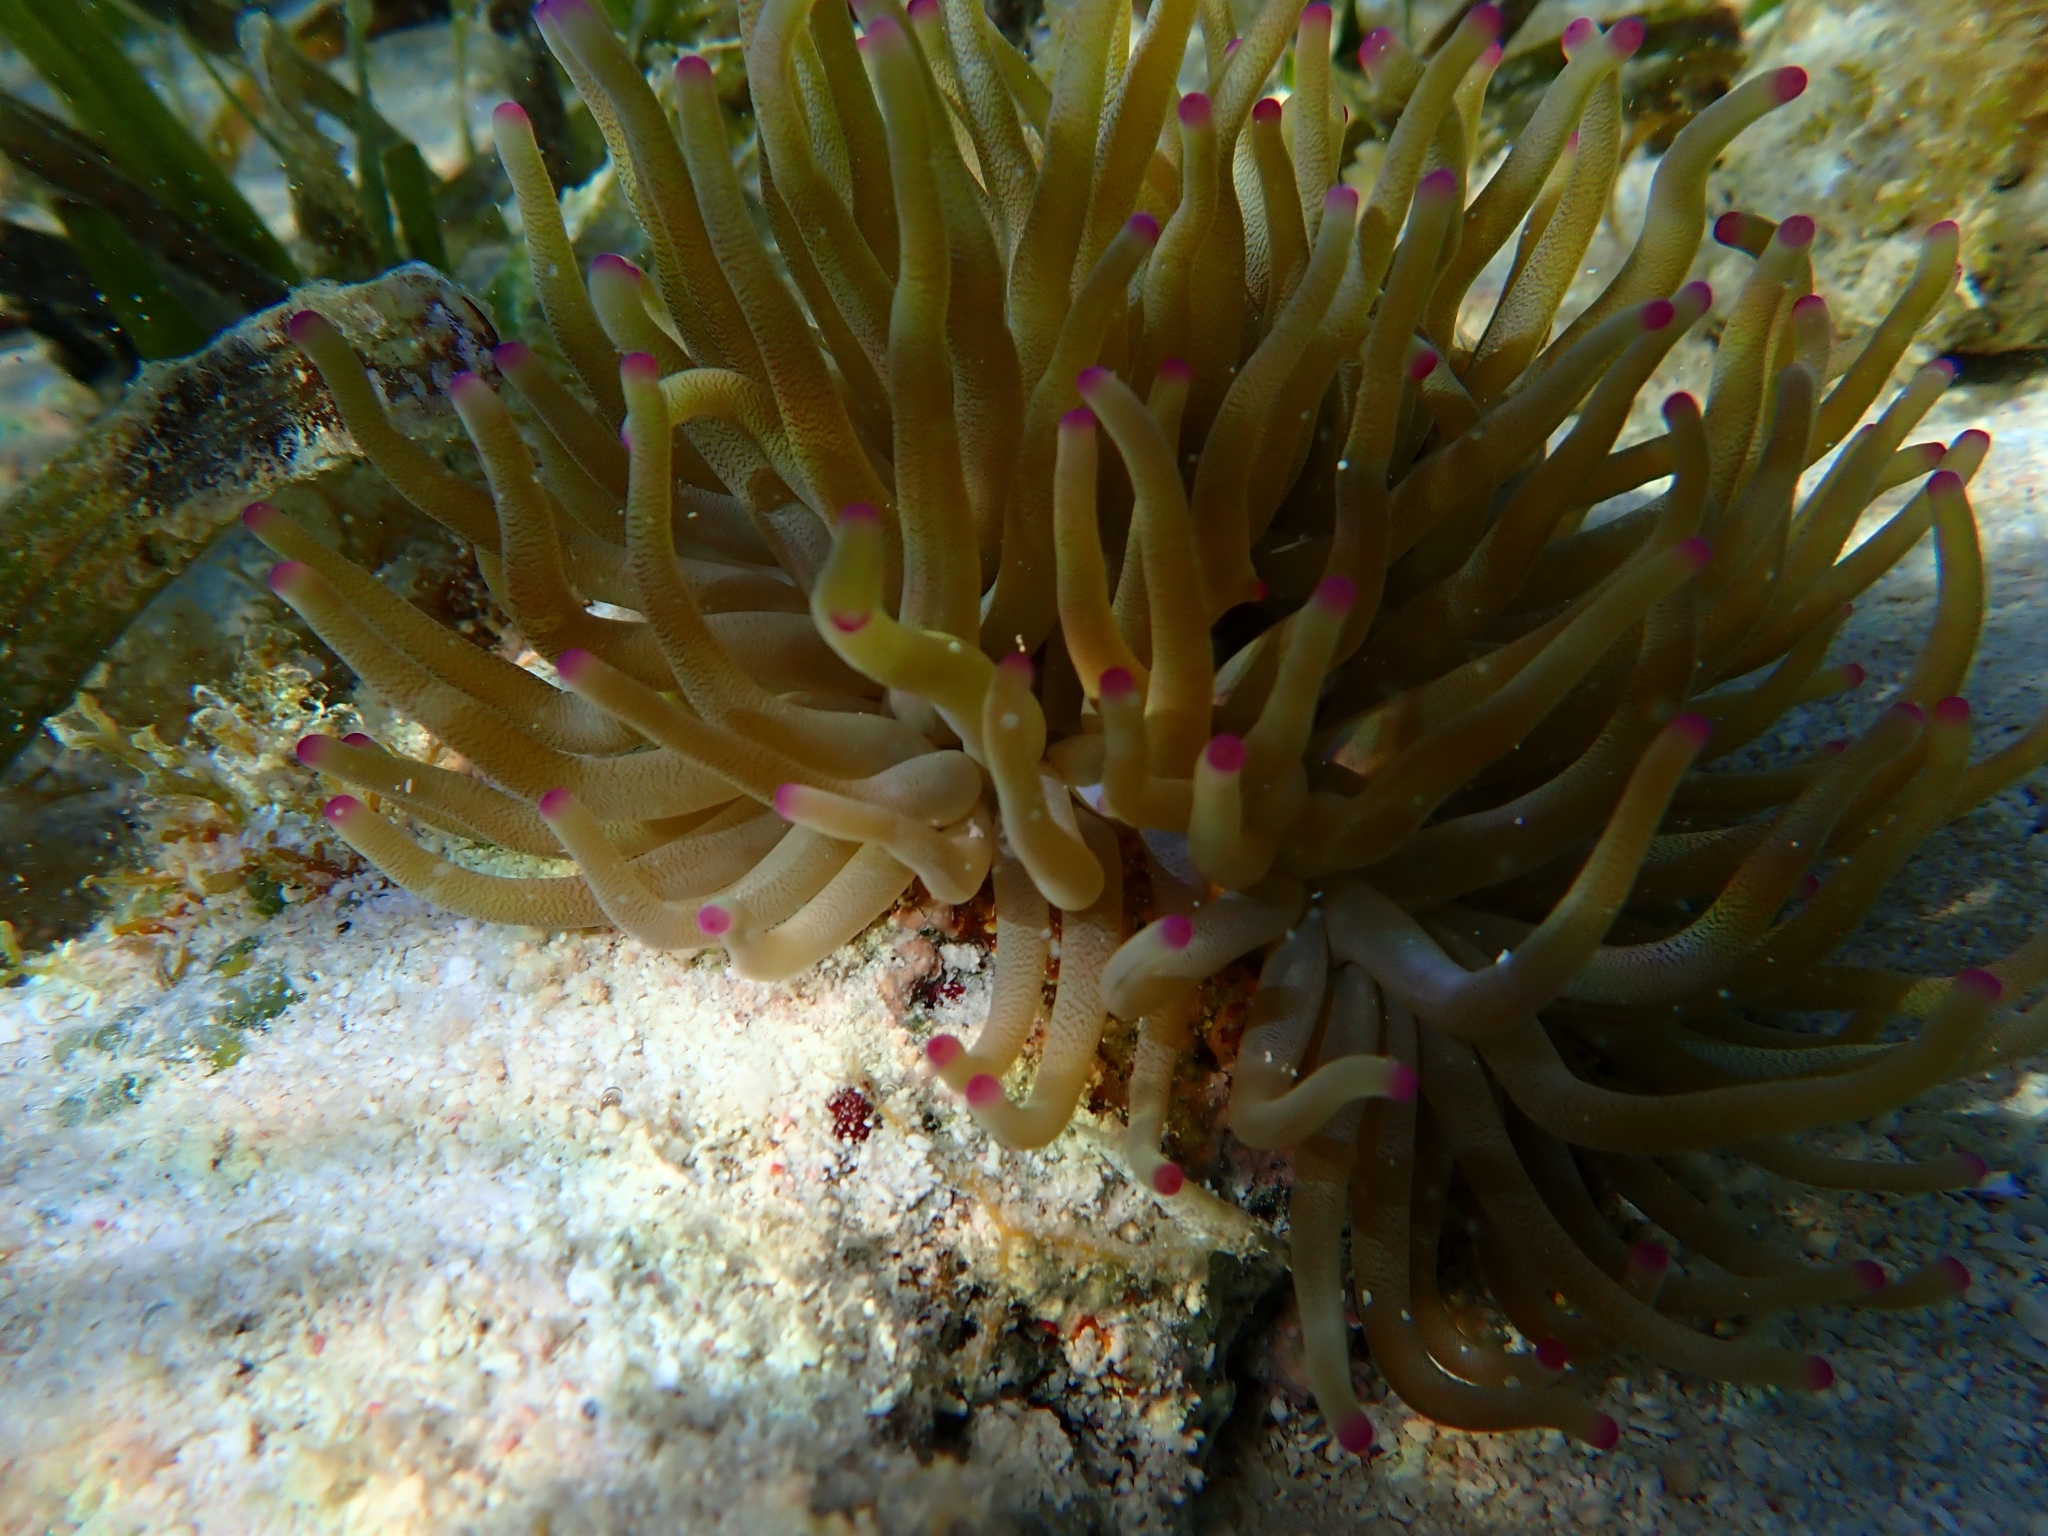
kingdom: Animalia
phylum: Cnidaria
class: Anthozoa
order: Actiniaria
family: Actiniidae
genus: Condylactis
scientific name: Condylactis gigantea
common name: Giant caribbean anemone
